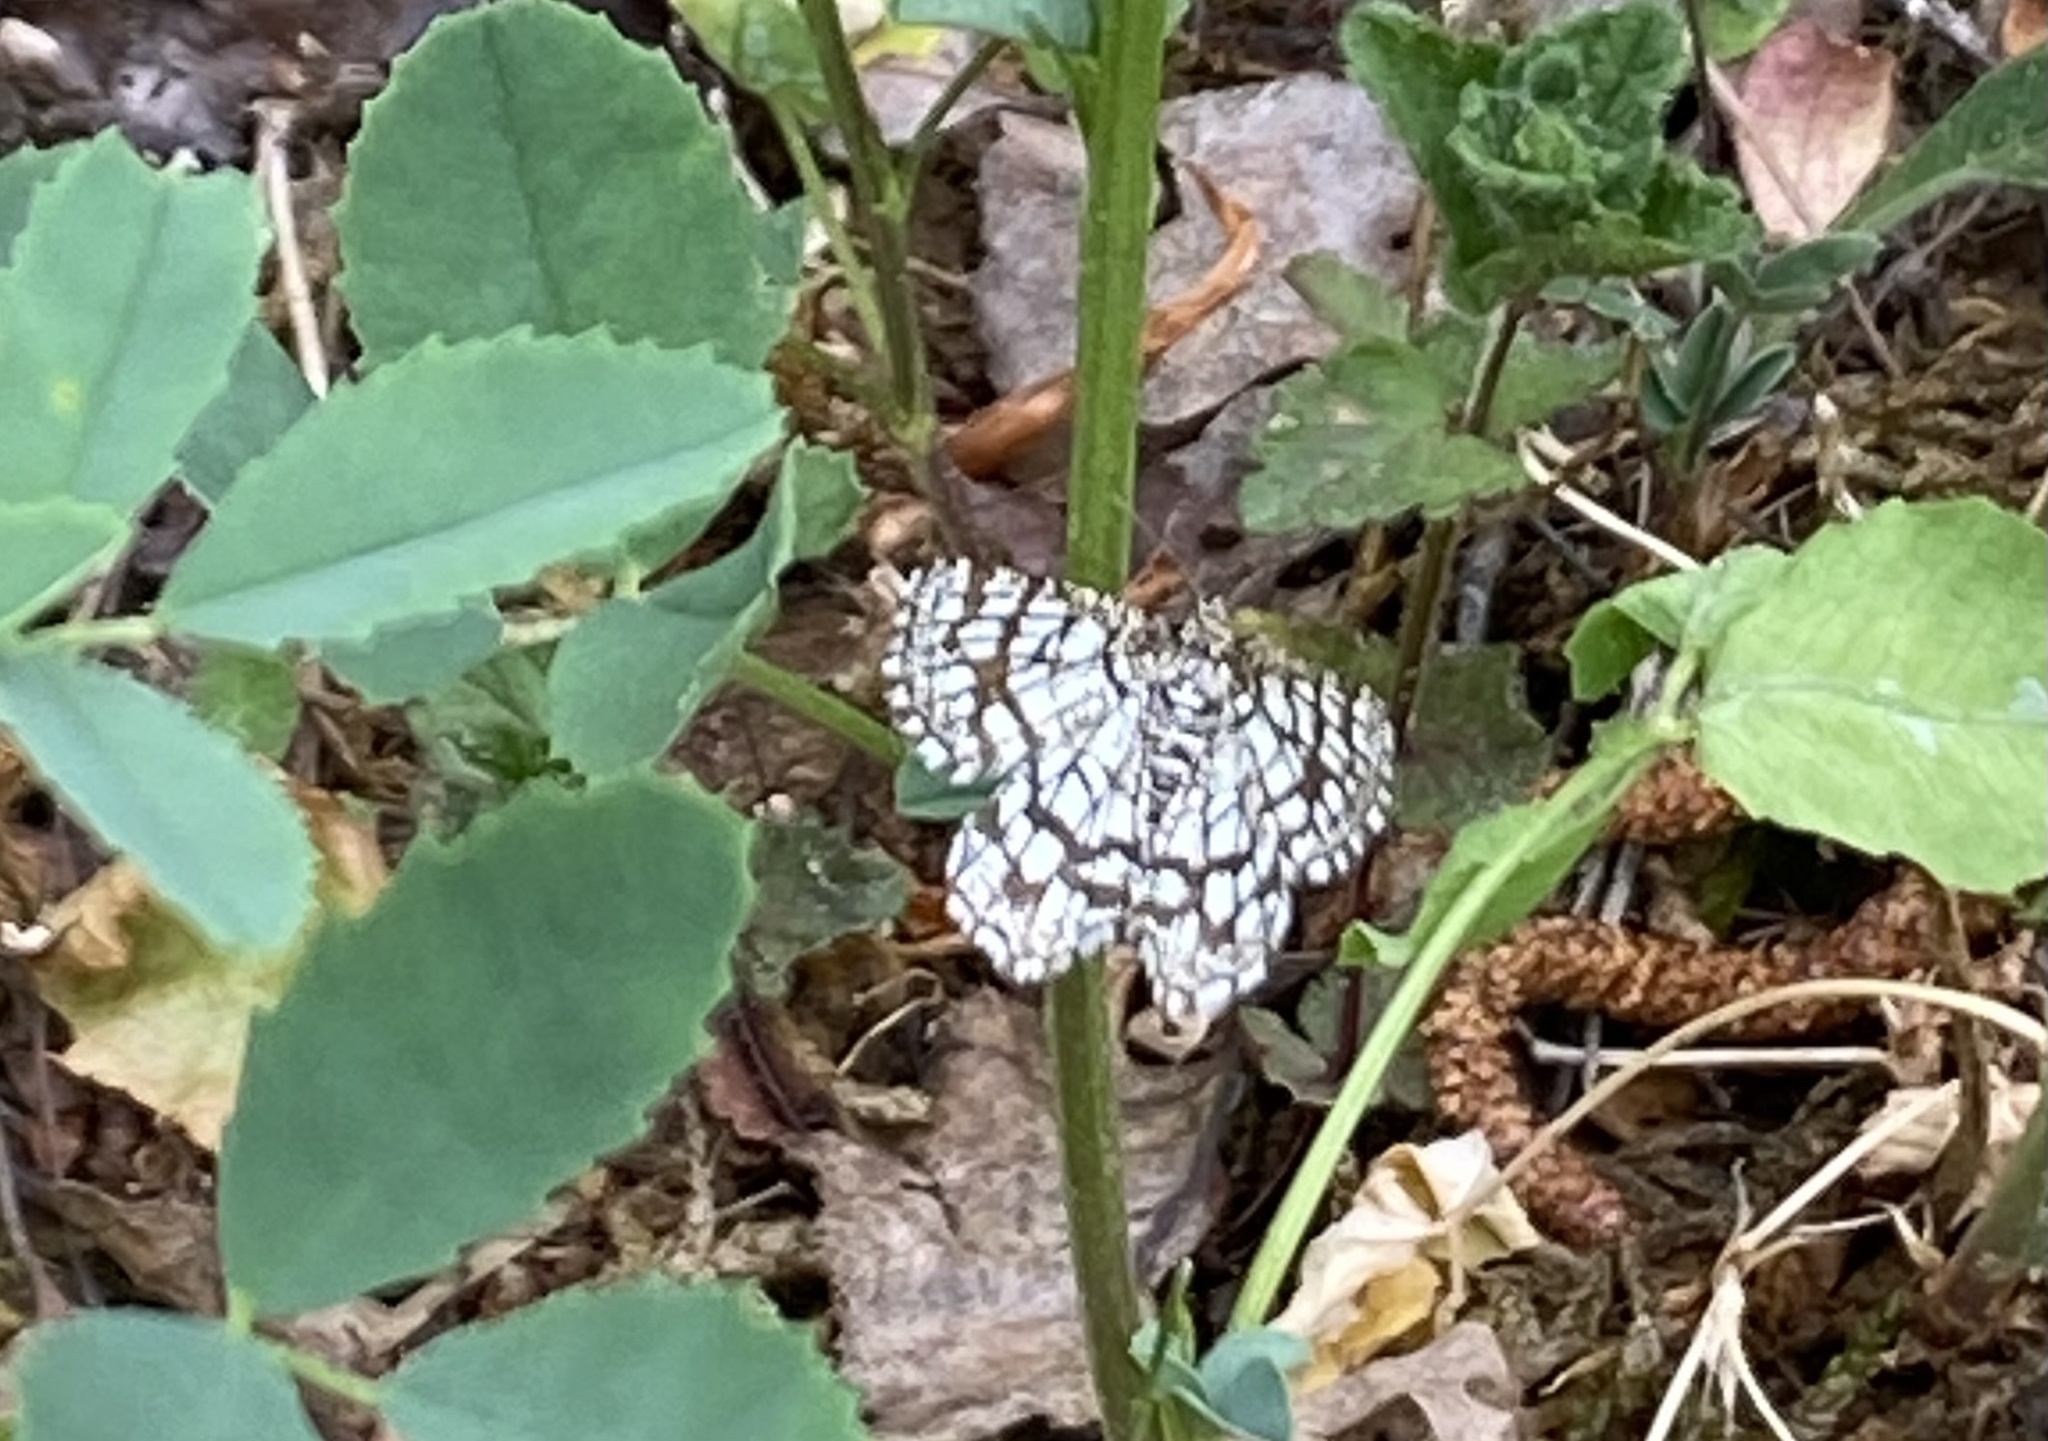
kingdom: Animalia
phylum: Arthropoda
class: Insecta
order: Lepidoptera
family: Geometridae
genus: Chiasmia
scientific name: Chiasmia clathrata
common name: Latticed heath
